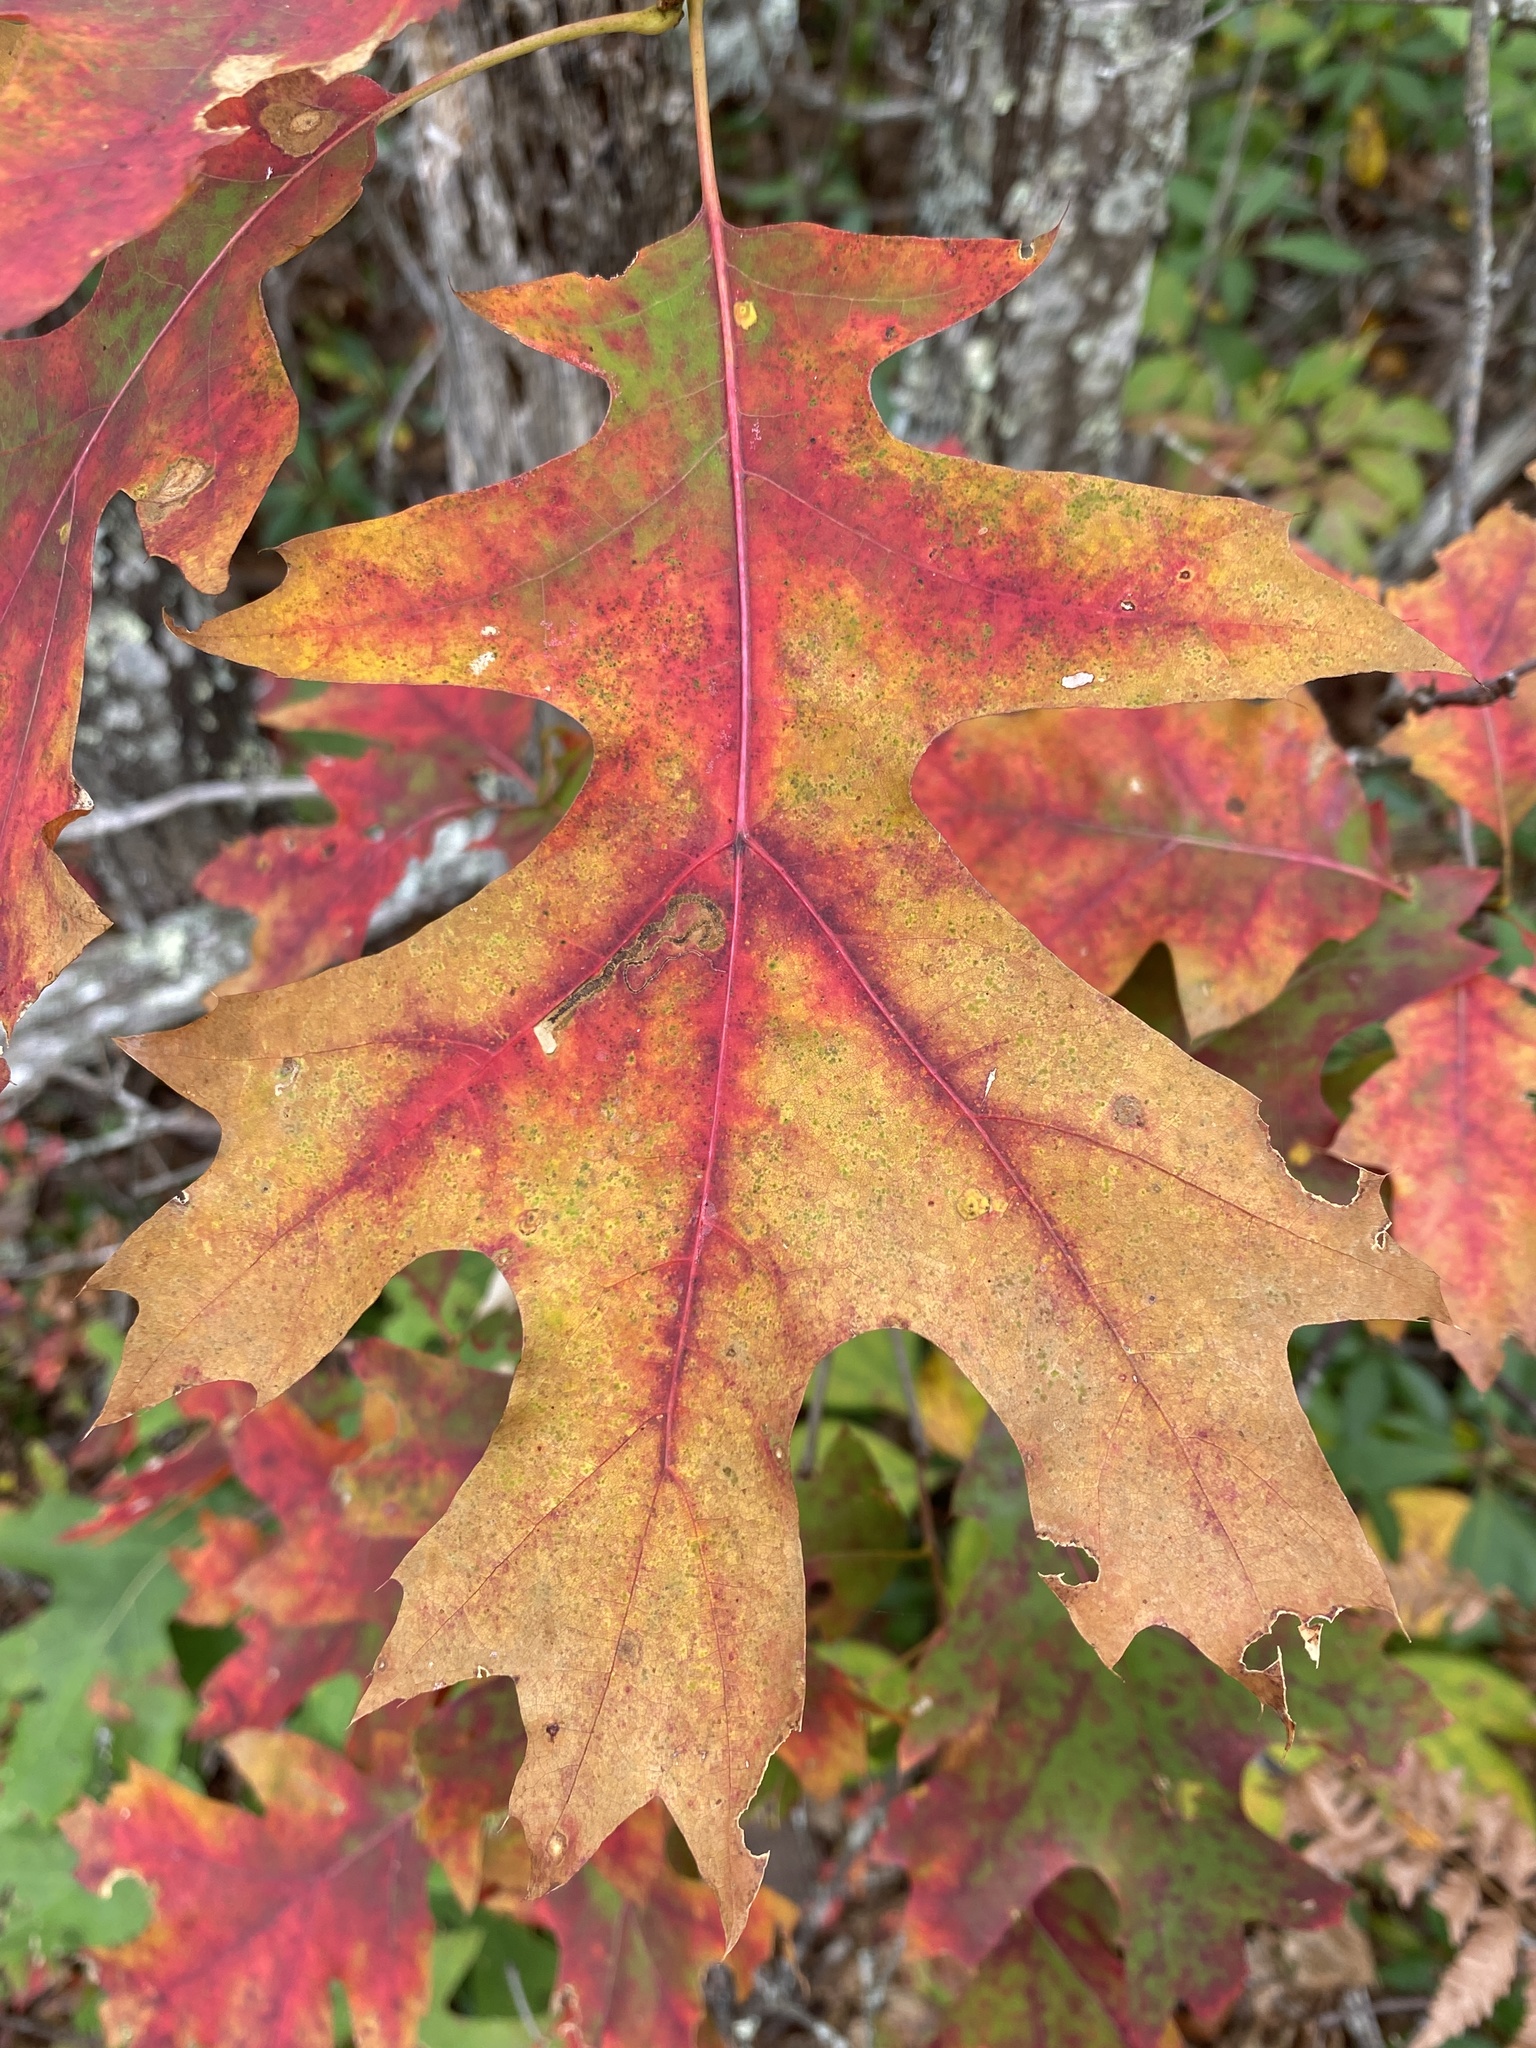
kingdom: Plantae
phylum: Tracheophyta
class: Magnoliopsida
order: Fagales
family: Fagaceae
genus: Quercus
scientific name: Quercus coccinea
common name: Scarlet oak
